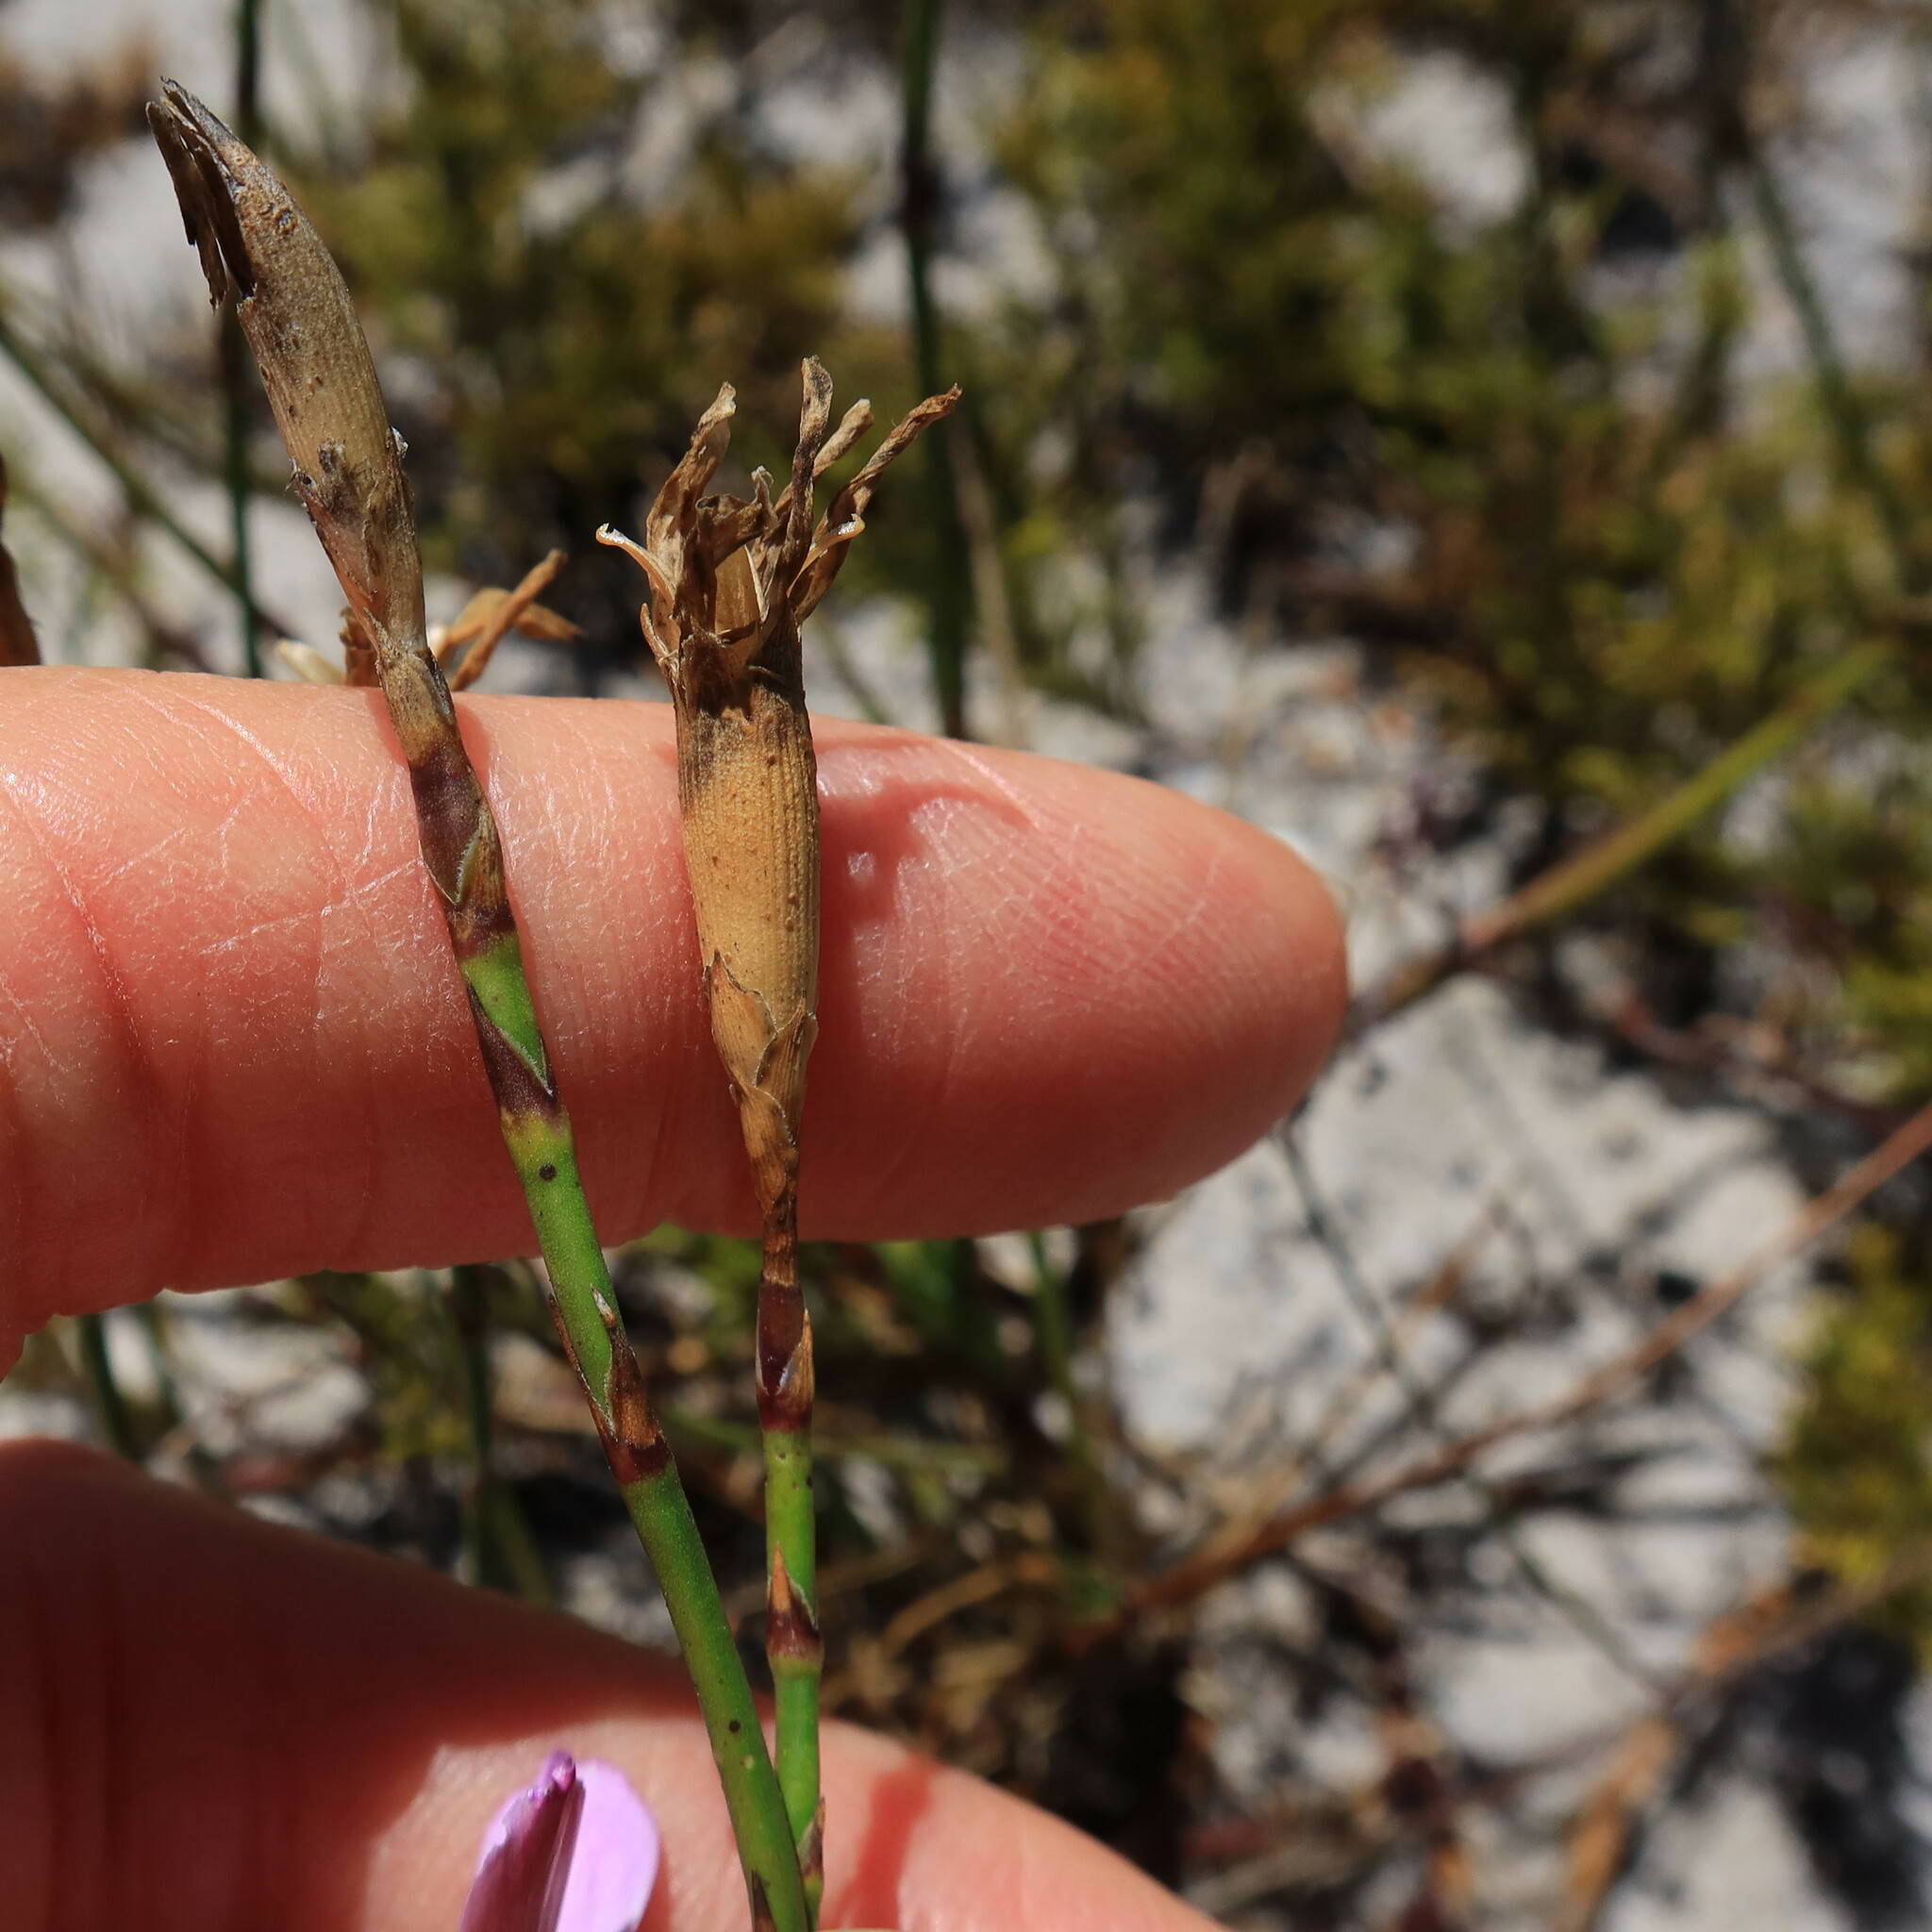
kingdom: Plantae
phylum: Tracheophyta
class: Magnoliopsida
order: Caryophyllales
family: Caryophyllaceae
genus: Dianthus
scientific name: Dianthus albens
